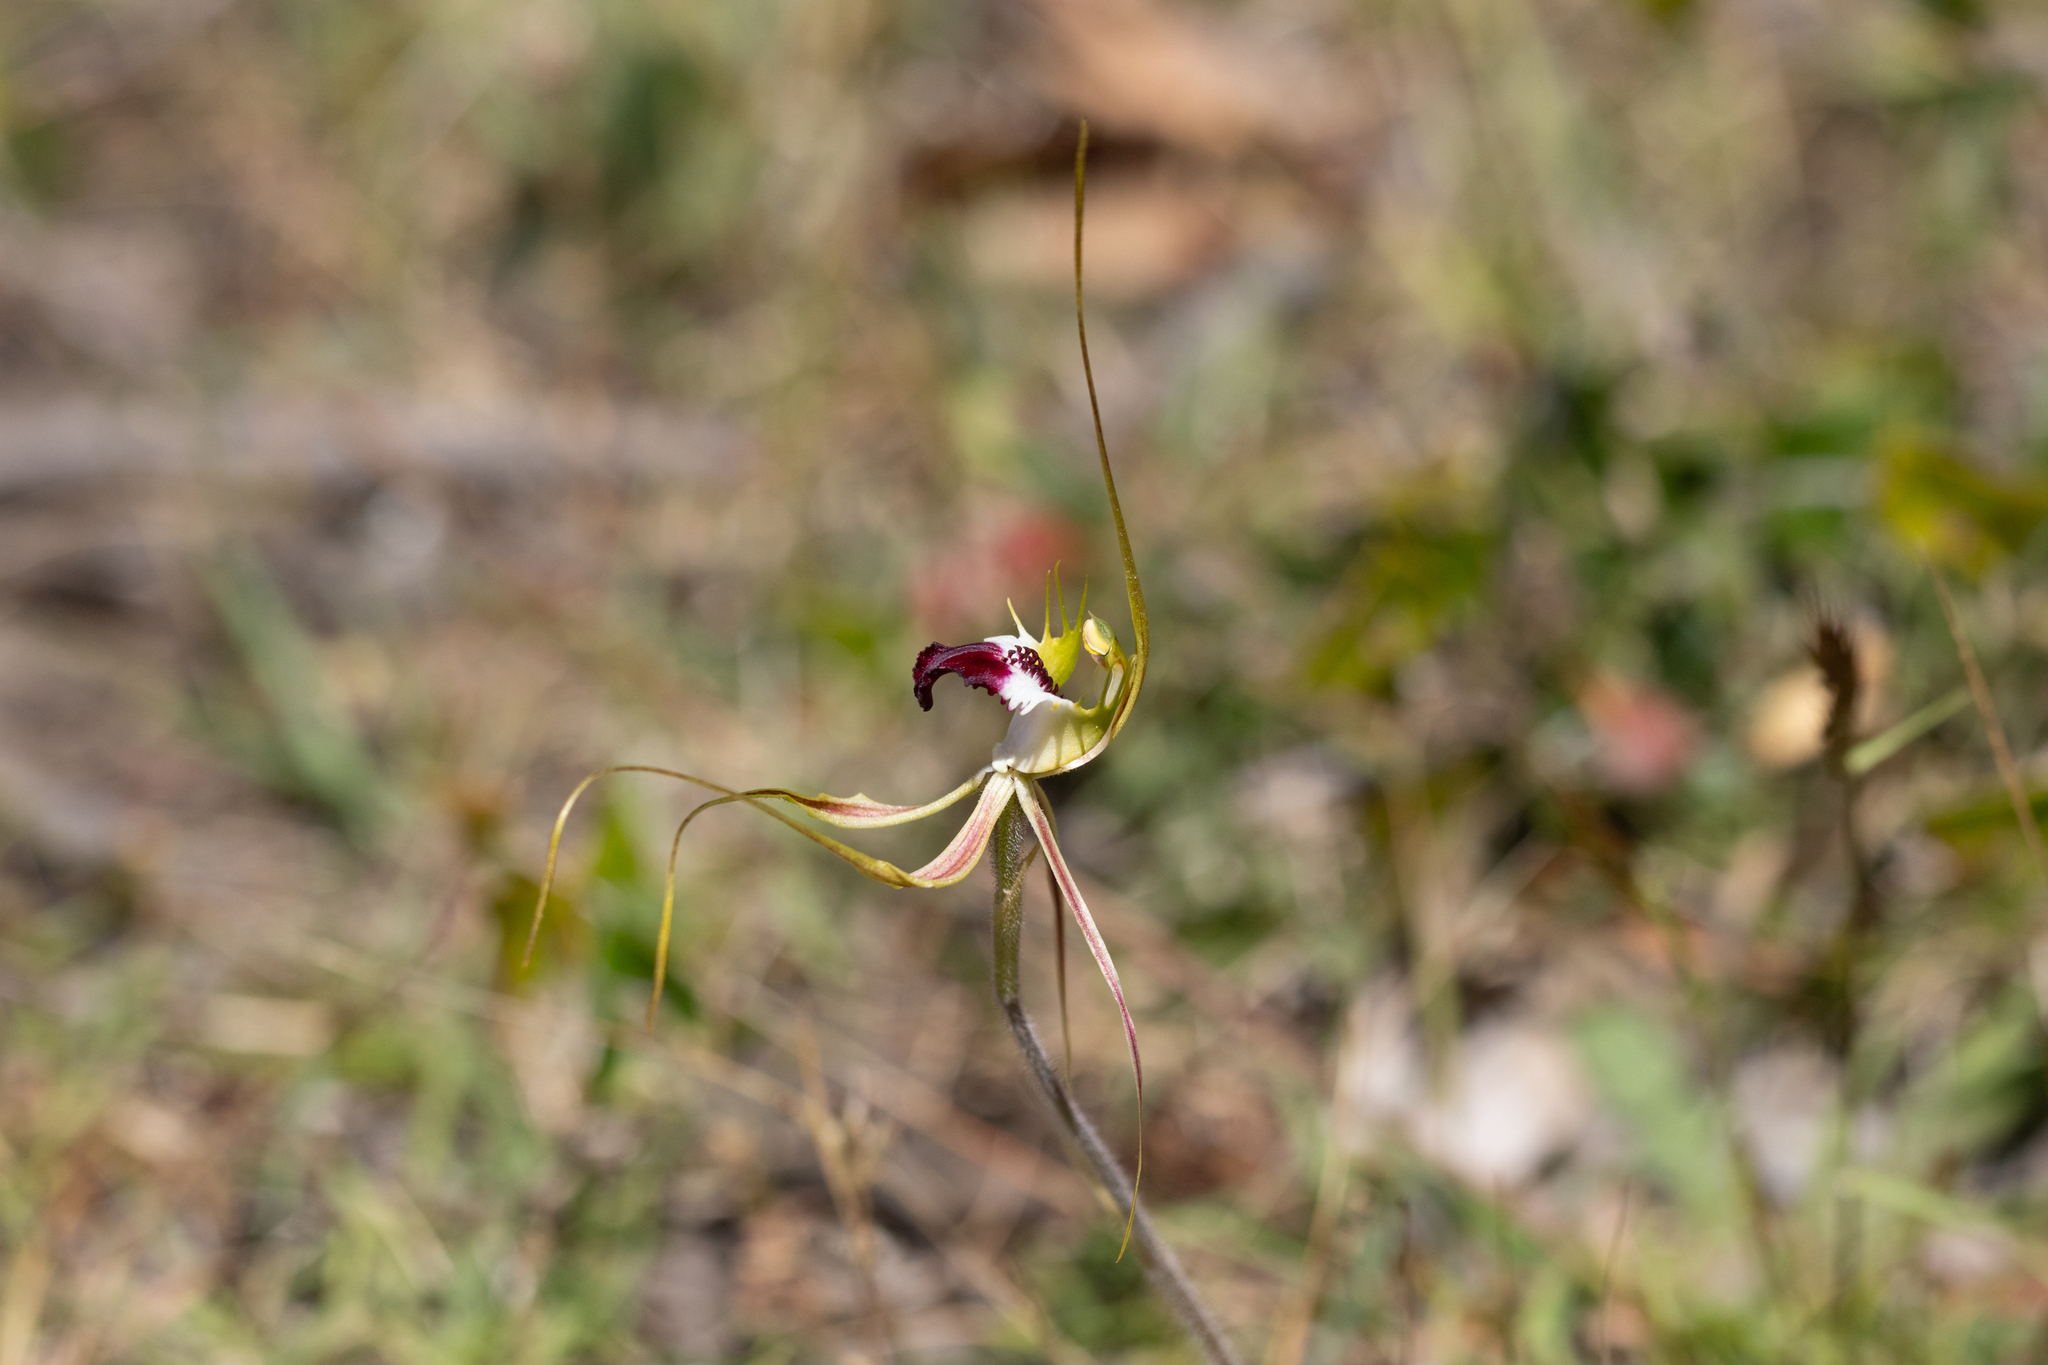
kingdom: Plantae
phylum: Tracheophyta
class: Liliopsida
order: Asparagales
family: Orchidaceae
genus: Caladenia
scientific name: Caladenia tentaculata
